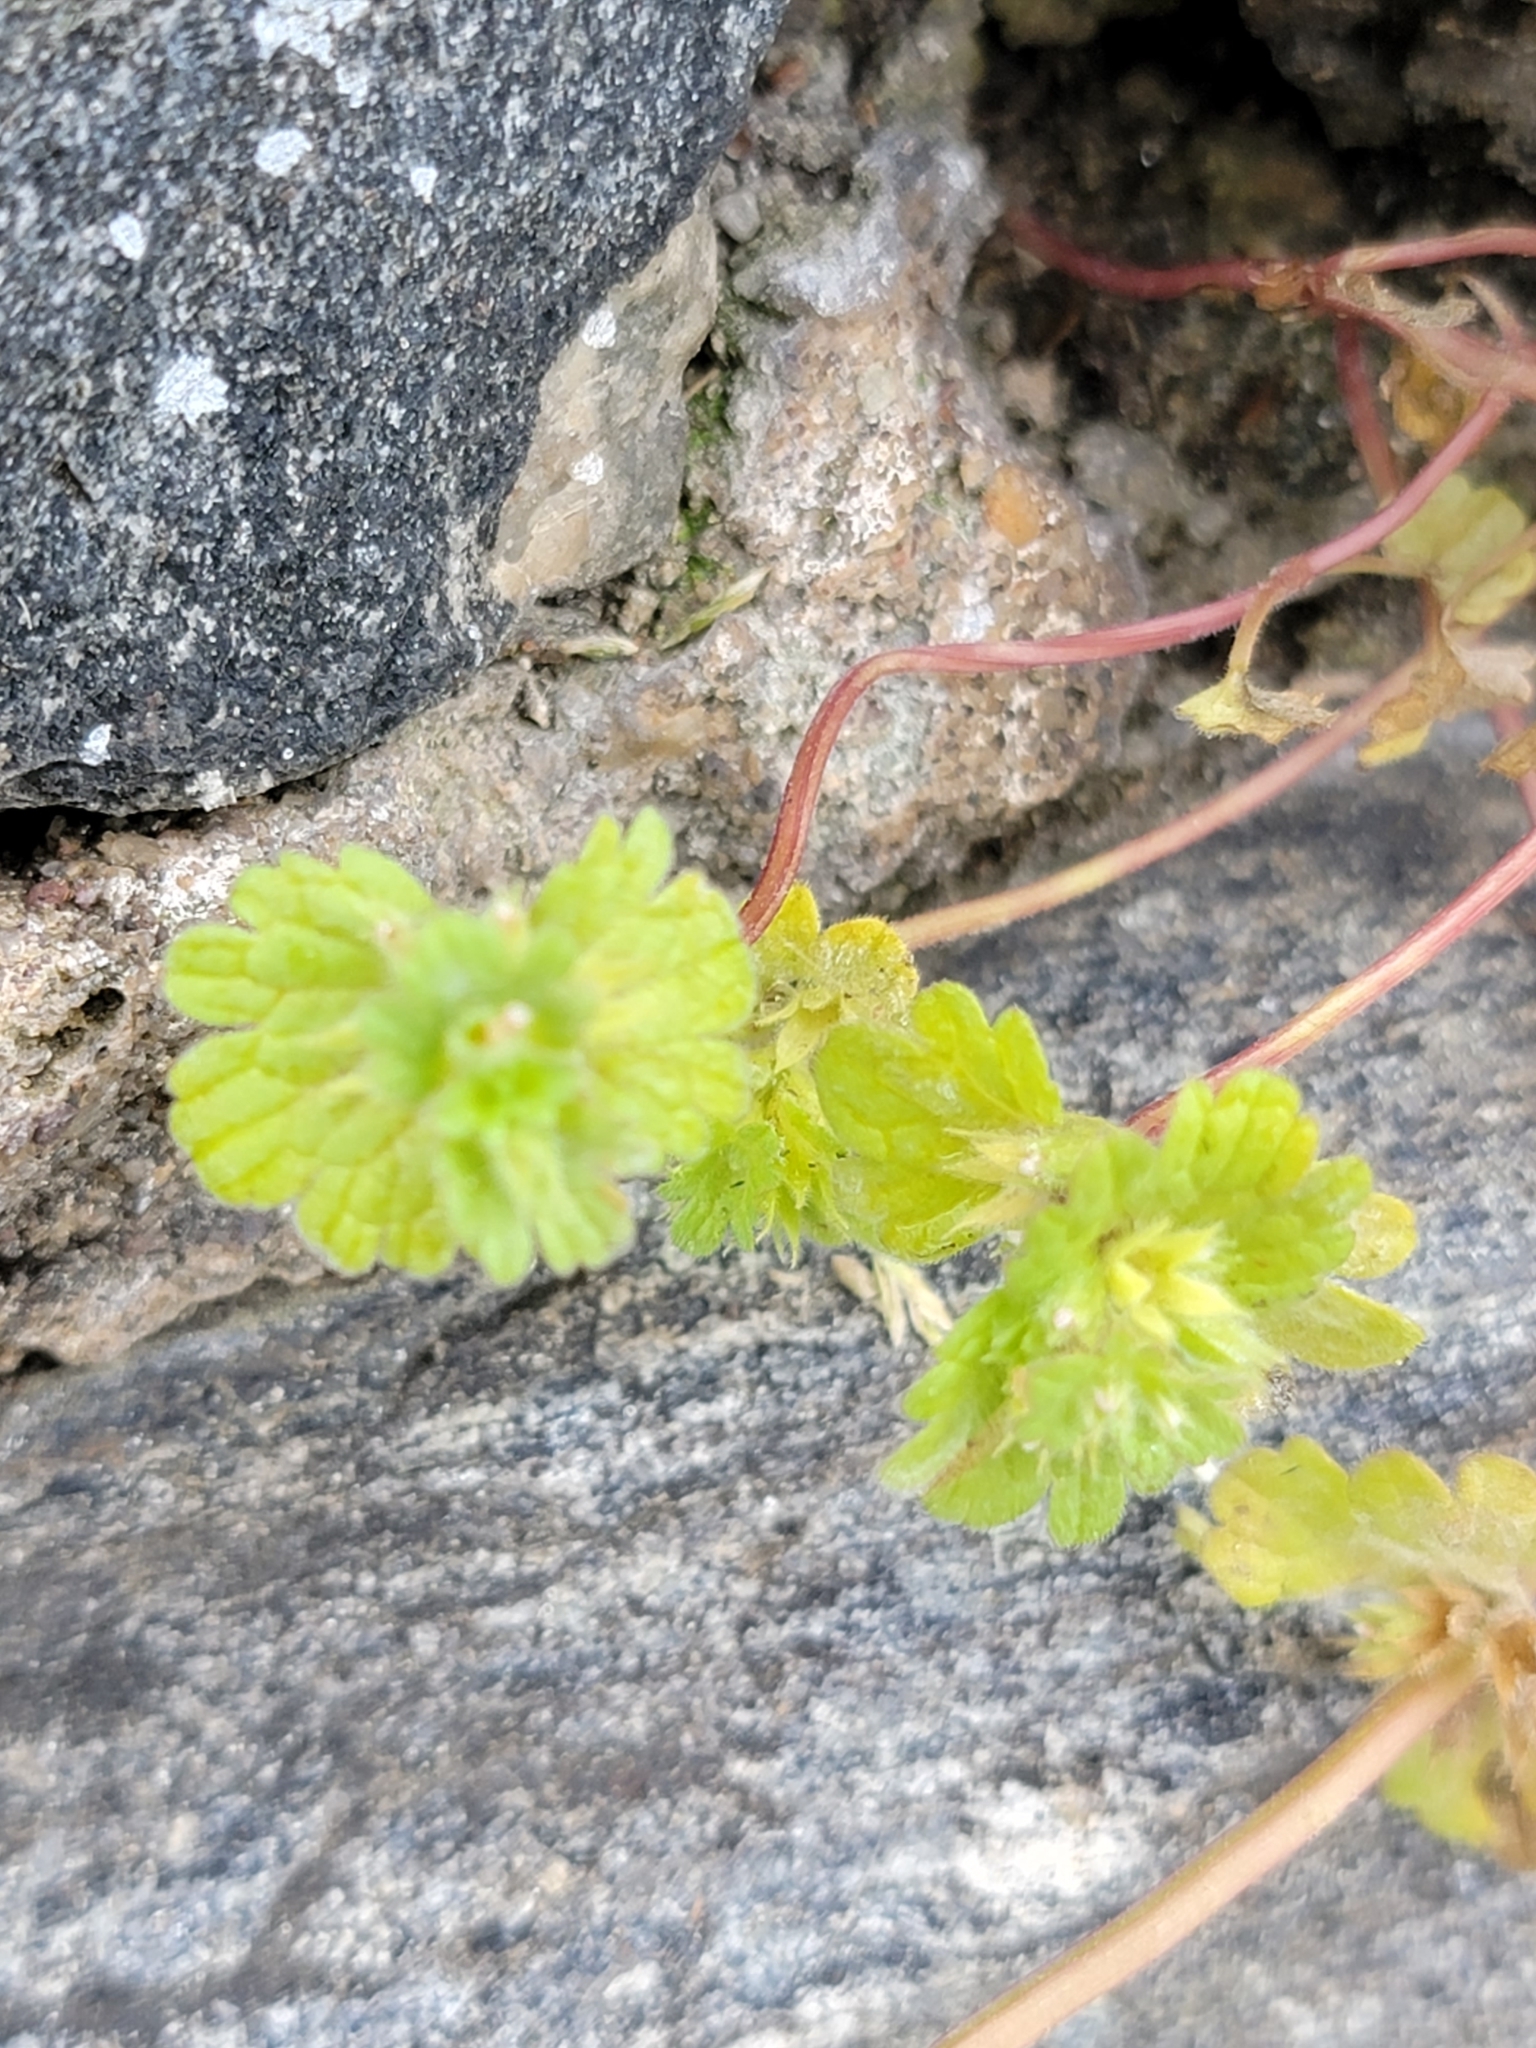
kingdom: Plantae
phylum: Tracheophyta
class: Magnoliopsida
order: Lamiales
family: Lamiaceae
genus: Lamium
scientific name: Lamium amplexicaule
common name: Henbit dead-nettle
